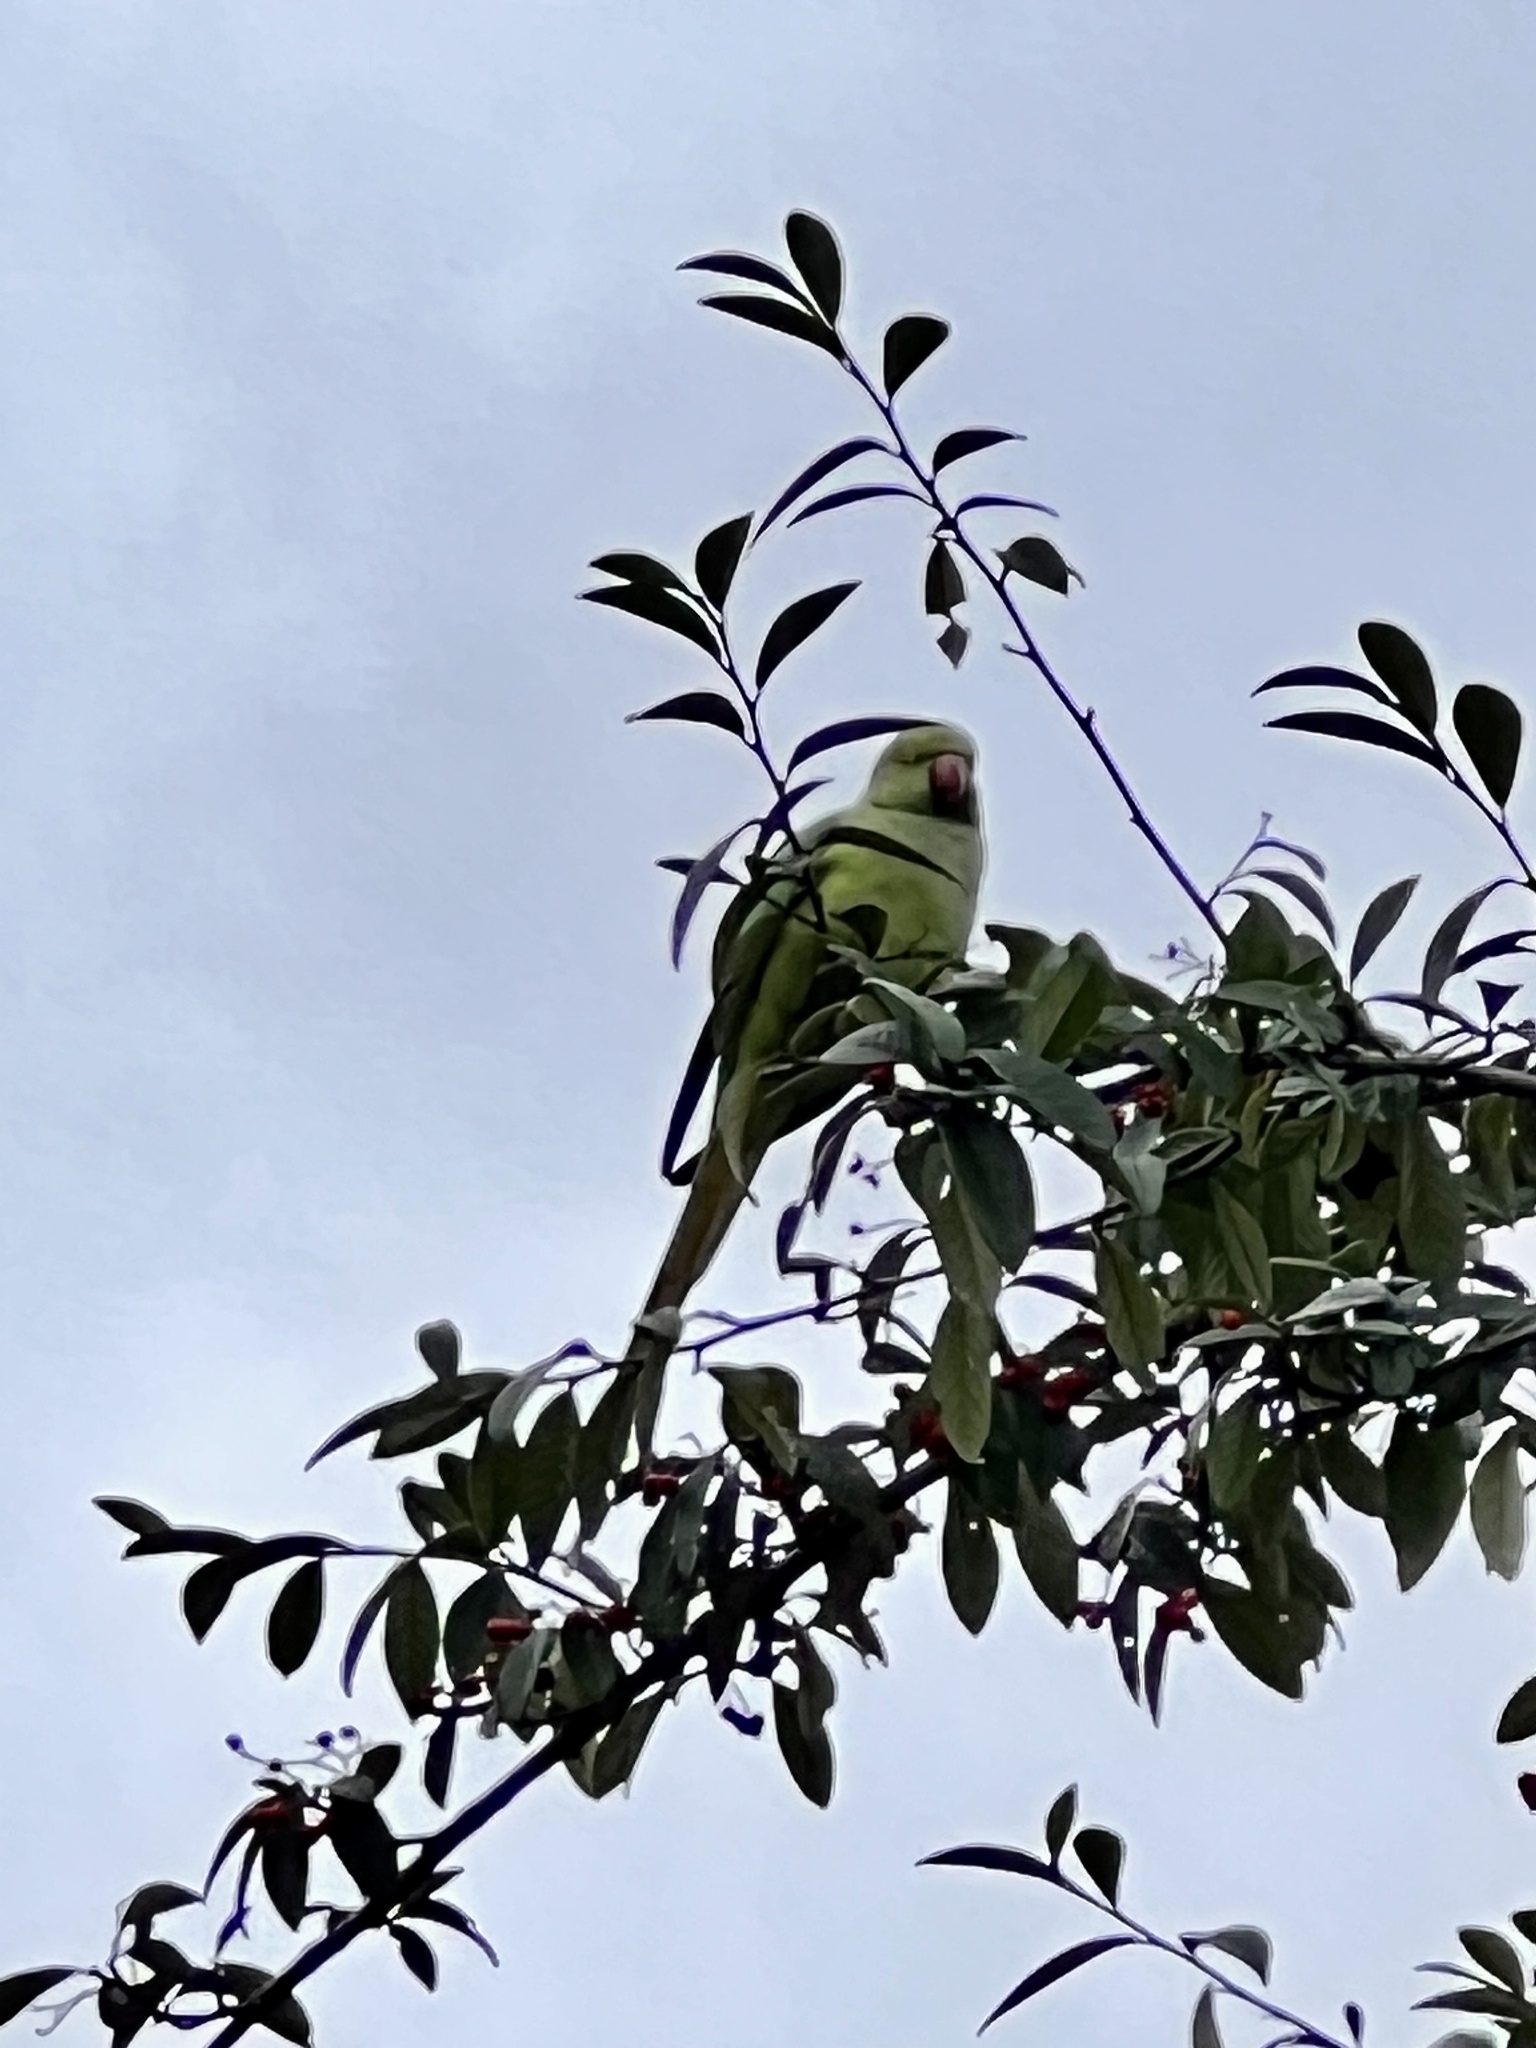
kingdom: Animalia
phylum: Chordata
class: Aves
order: Psittaciformes
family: Psittacidae
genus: Psittacula
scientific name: Psittacula krameri
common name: Rose-ringed parakeet
